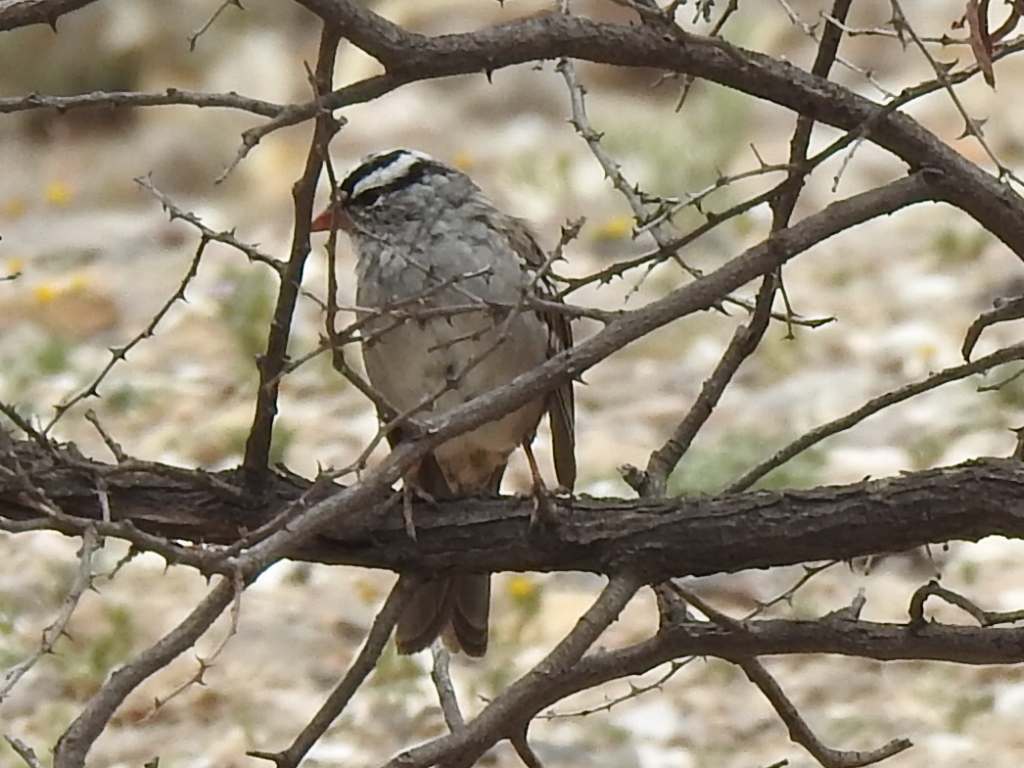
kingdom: Animalia
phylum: Chordata
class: Aves
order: Passeriformes
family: Passerellidae
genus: Zonotrichia
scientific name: Zonotrichia leucophrys
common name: White-crowned sparrow
